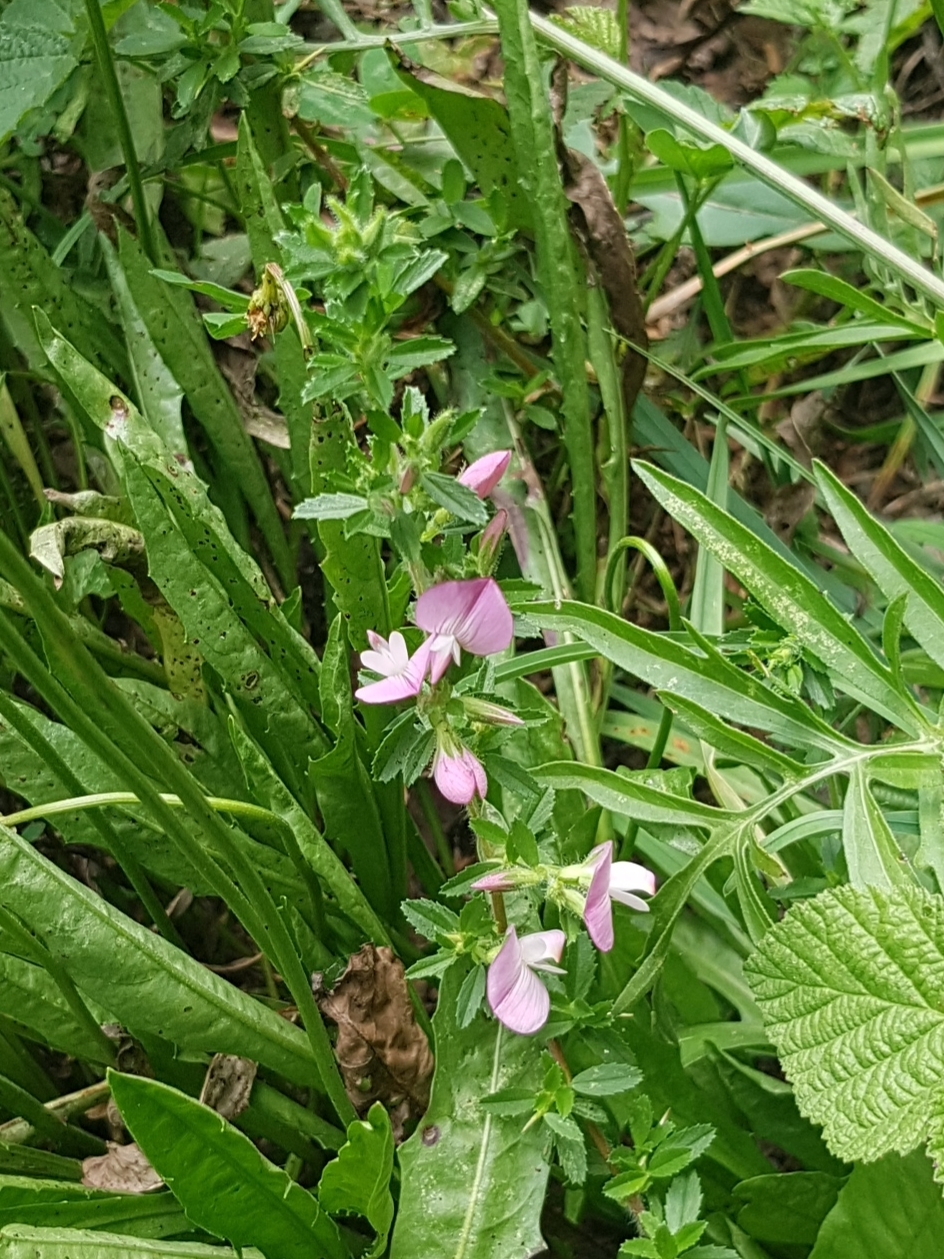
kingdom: Plantae
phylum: Tracheophyta
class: Magnoliopsida
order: Fabales
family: Fabaceae
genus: Ononis
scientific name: Ononis spinosa
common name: Spiny restharrow
